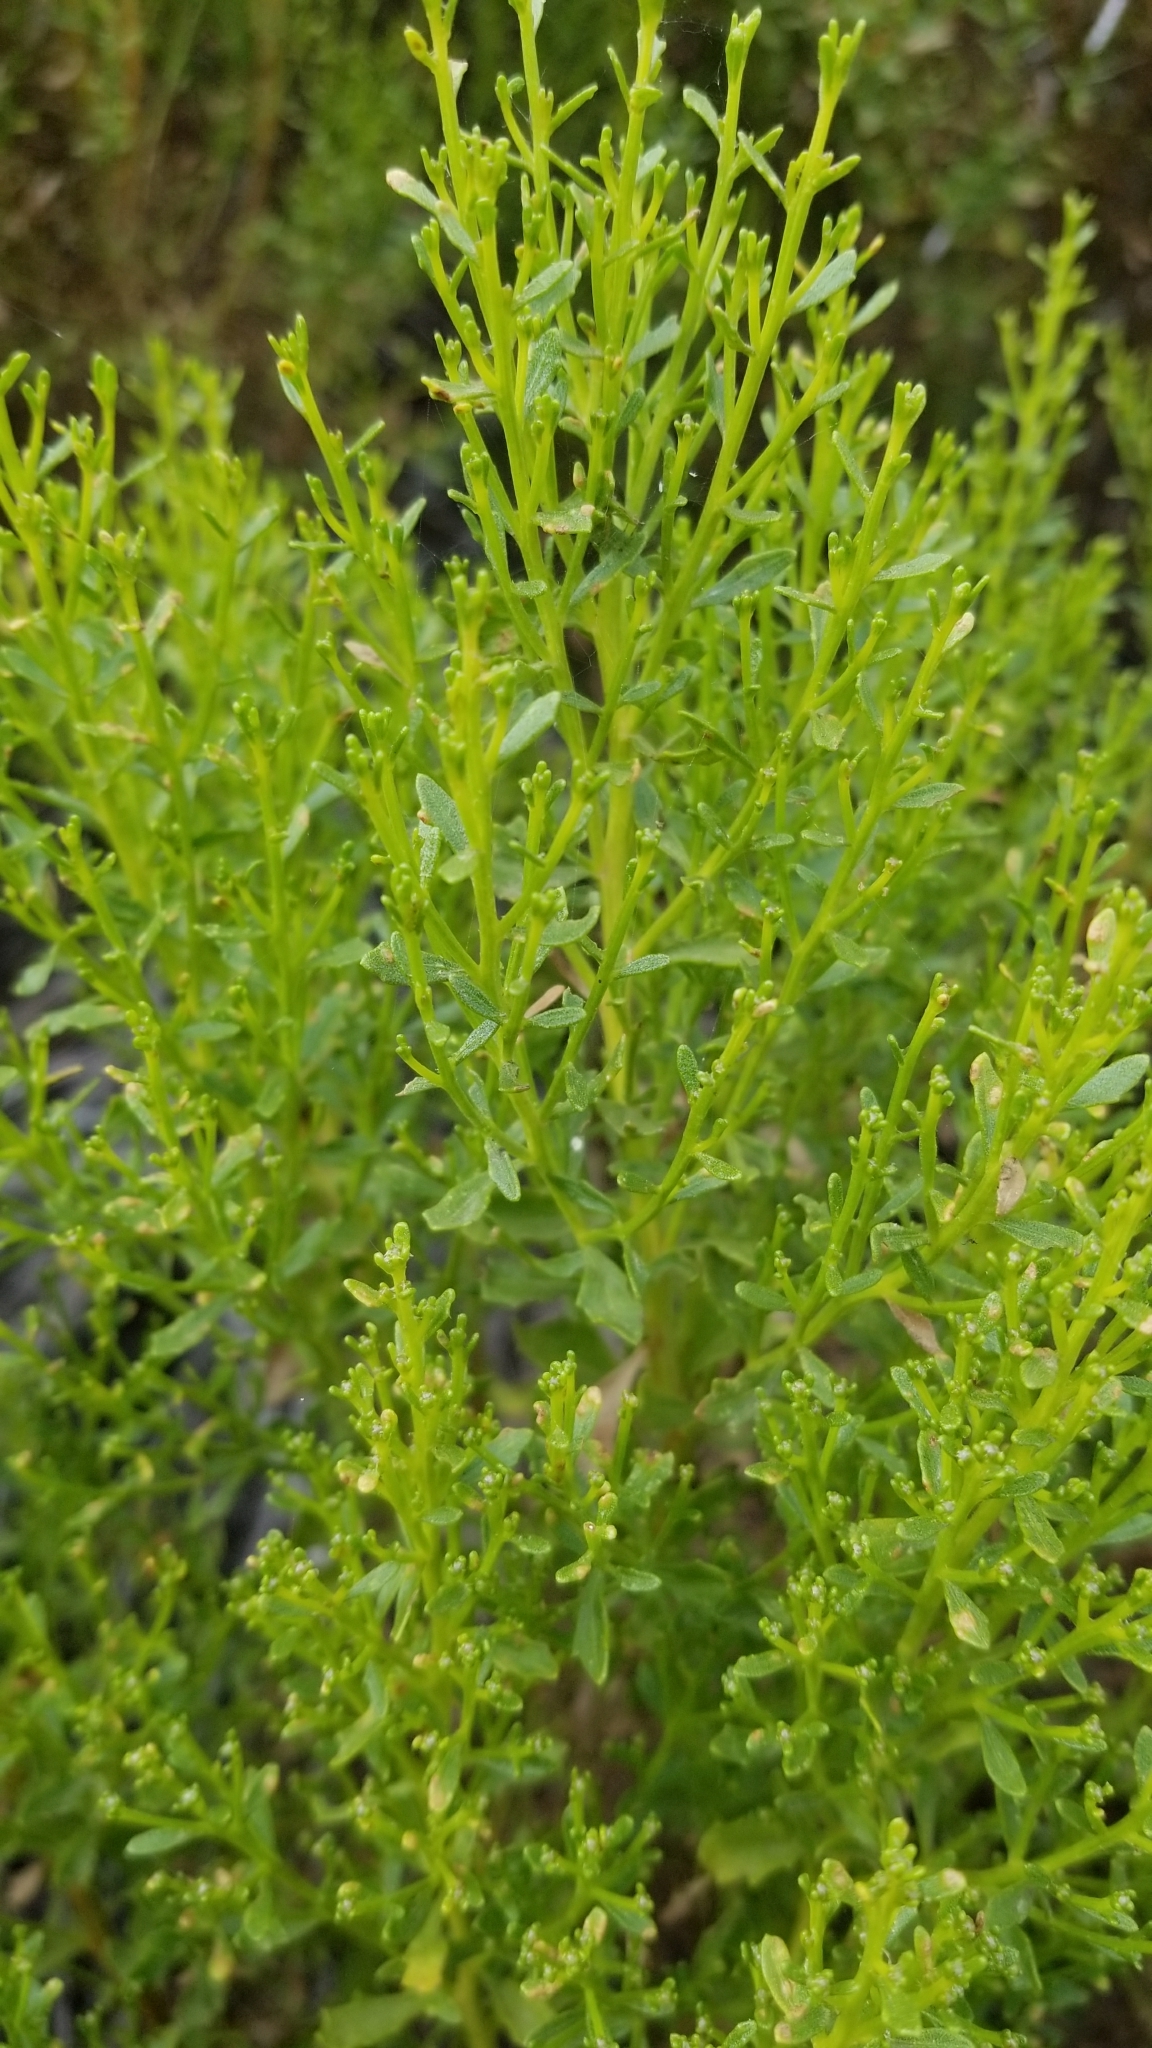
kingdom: Plantae
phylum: Tracheophyta
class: Magnoliopsida
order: Asterales
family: Asteraceae
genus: Baccharis
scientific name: Baccharis pilularis
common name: Coyotebrush
